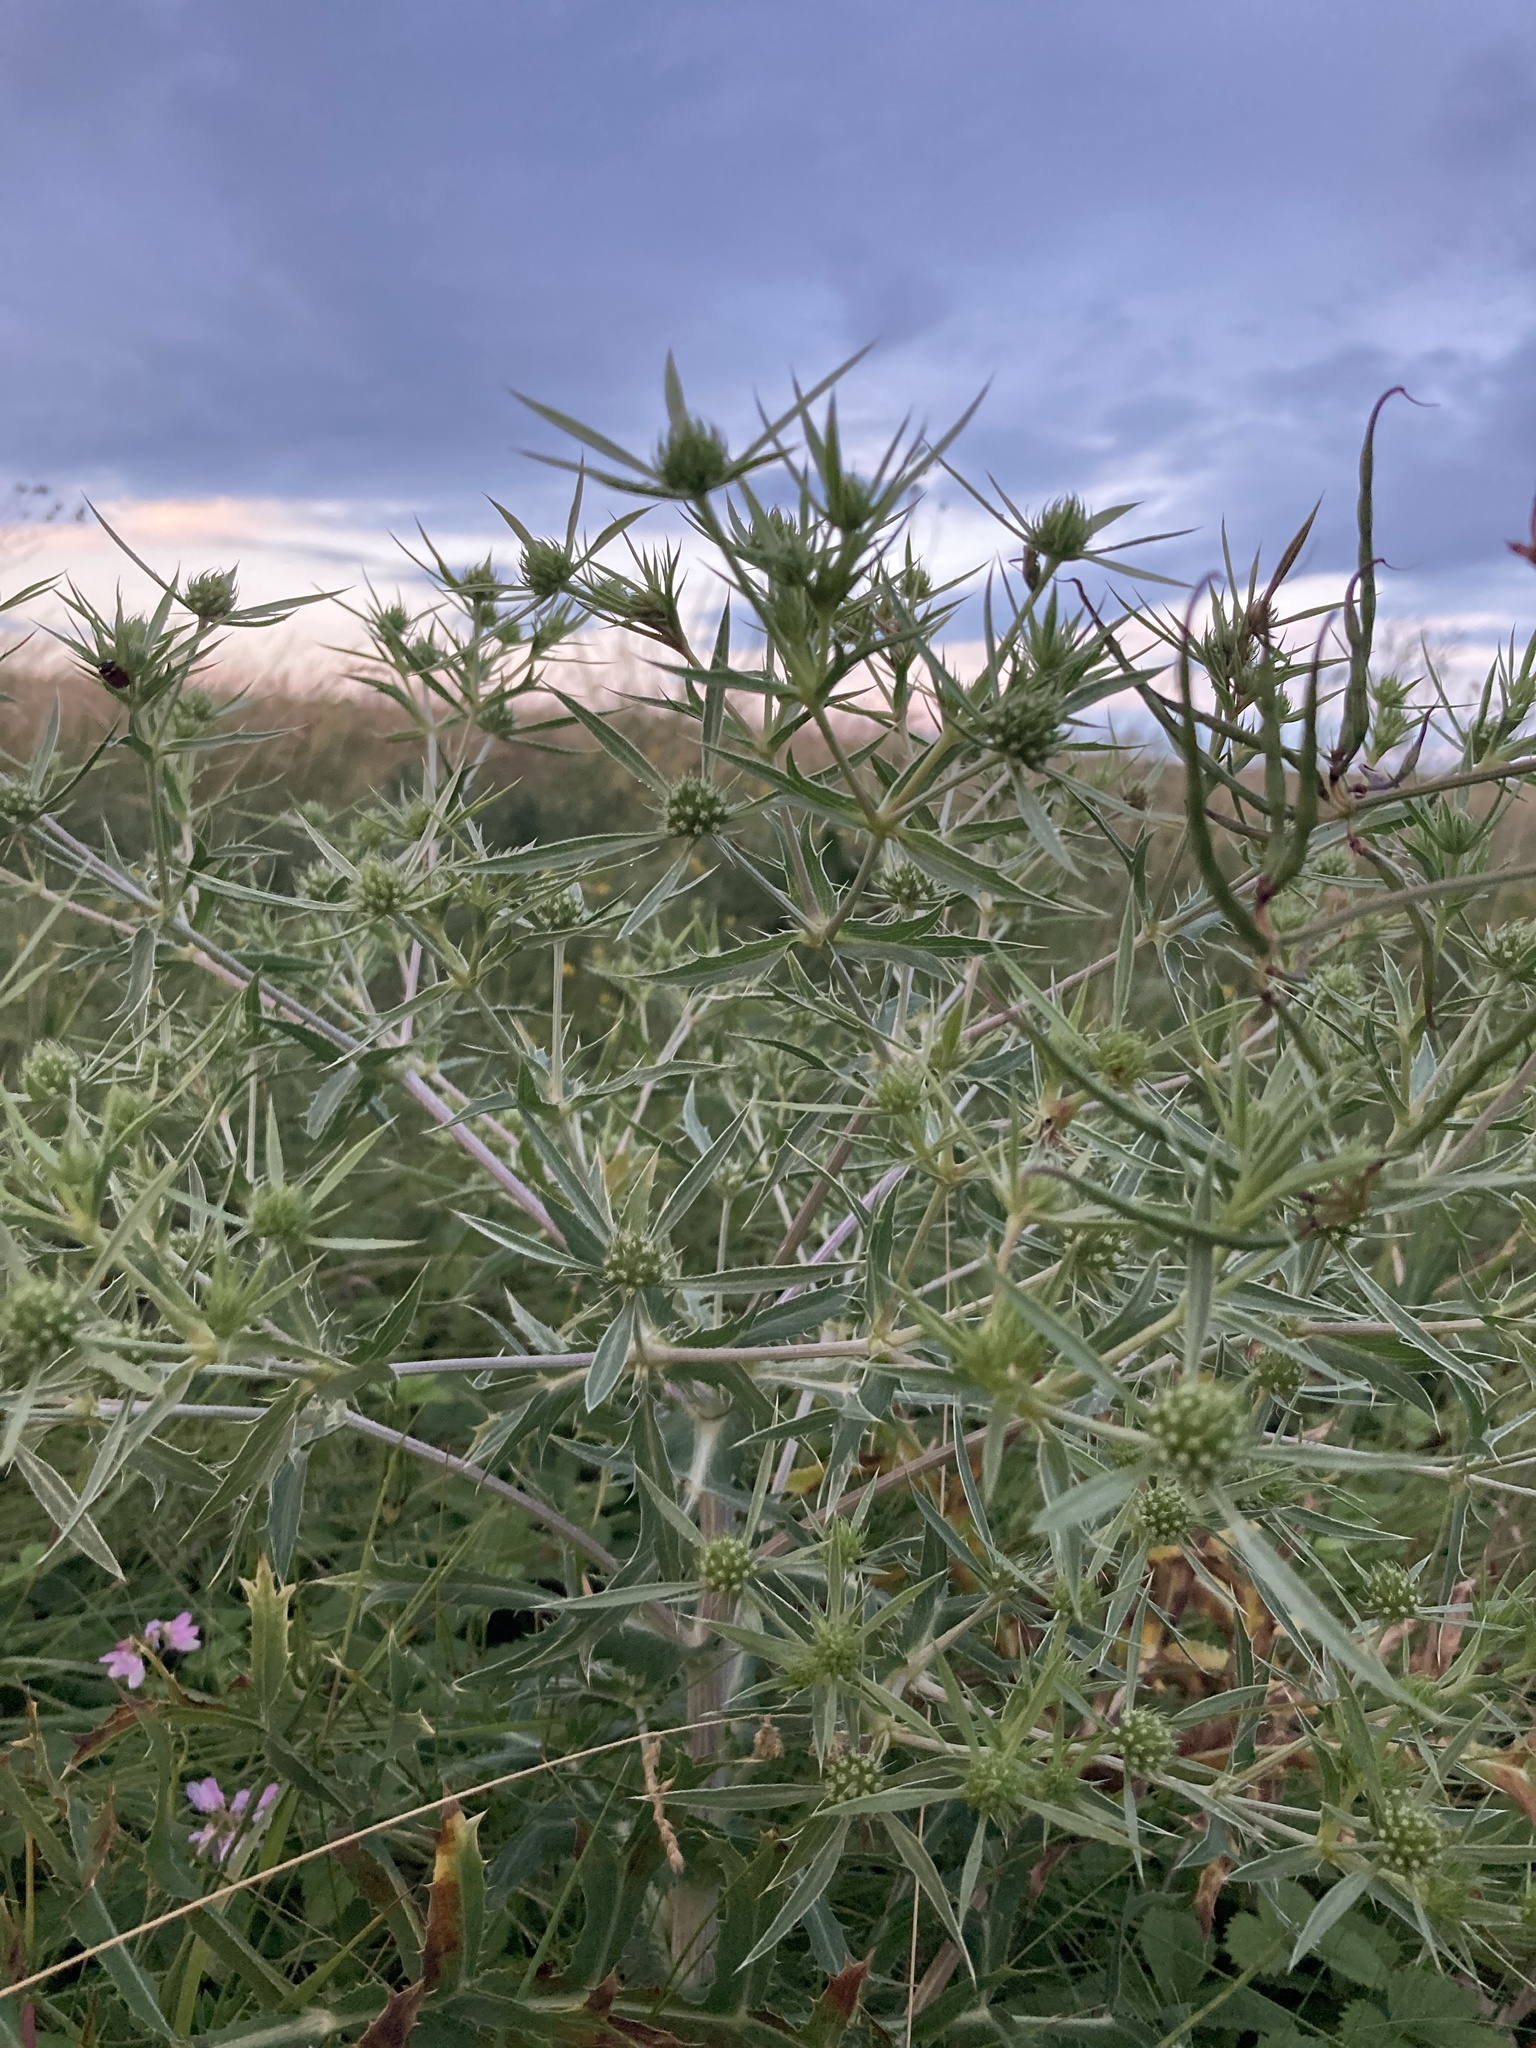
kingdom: Plantae
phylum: Tracheophyta
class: Magnoliopsida
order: Apiales
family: Apiaceae
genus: Eryngium
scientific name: Eryngium campestre
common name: Field eryngo
